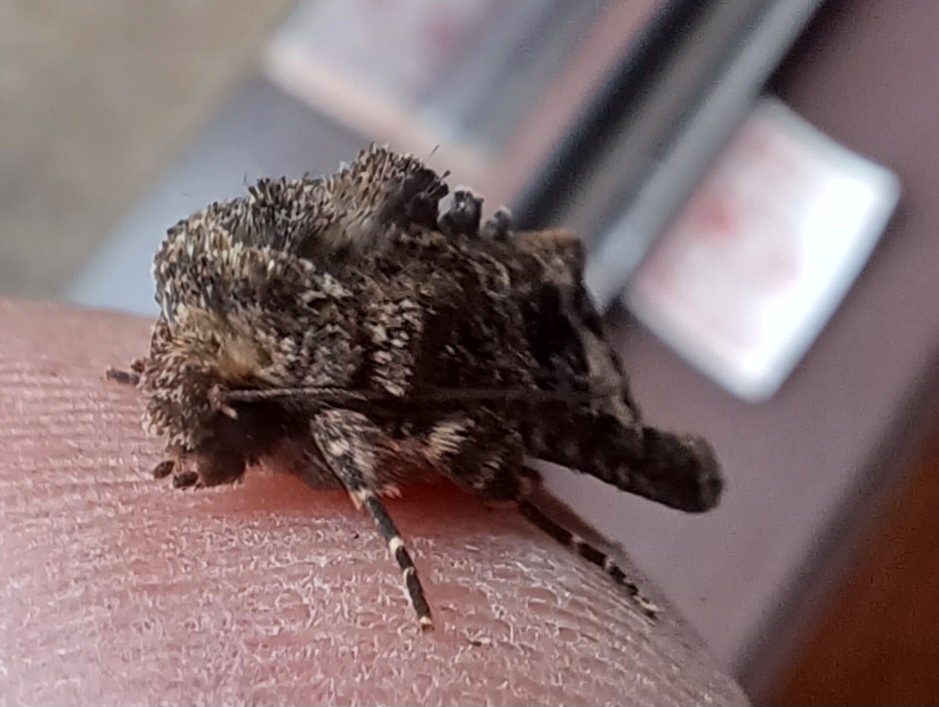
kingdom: Animalia
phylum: Arthropoda
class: Insecta
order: Lepidoptera
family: Noctuidae
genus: Neumichtis
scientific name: Neumichtis spumigera
